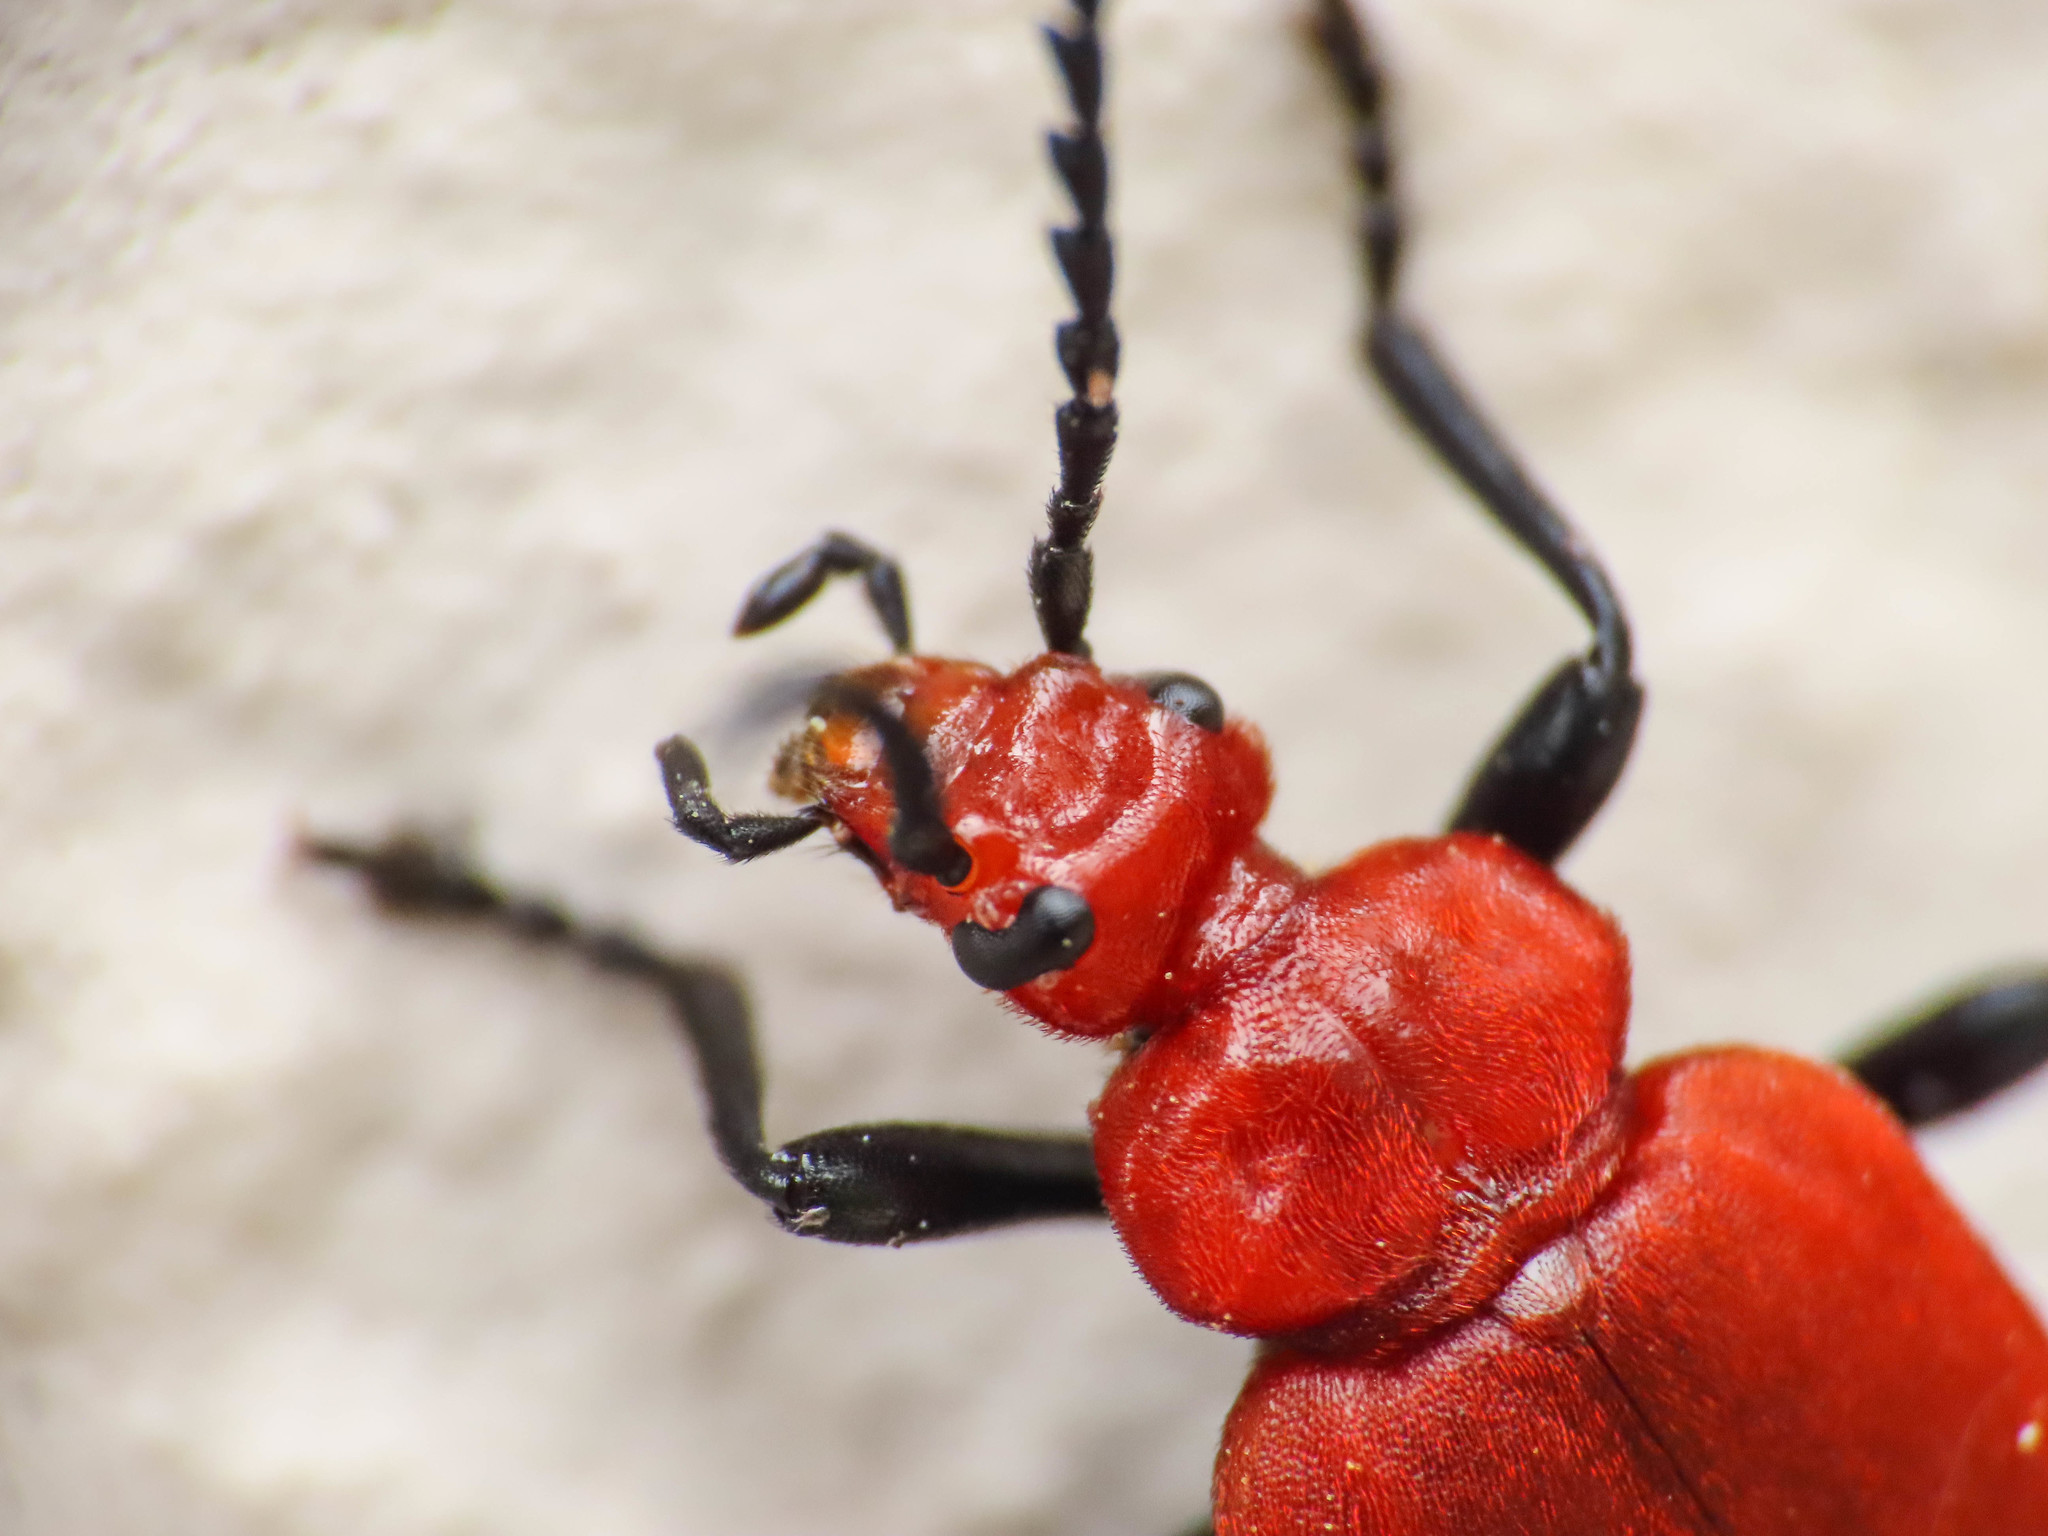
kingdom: Animalia
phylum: Arthropoda
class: Insecta
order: Coleoptera
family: Pyrochroidae
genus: Pyrochroa
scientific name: Pyrochroa serraticornis
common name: Red-headed cardinal beetle
